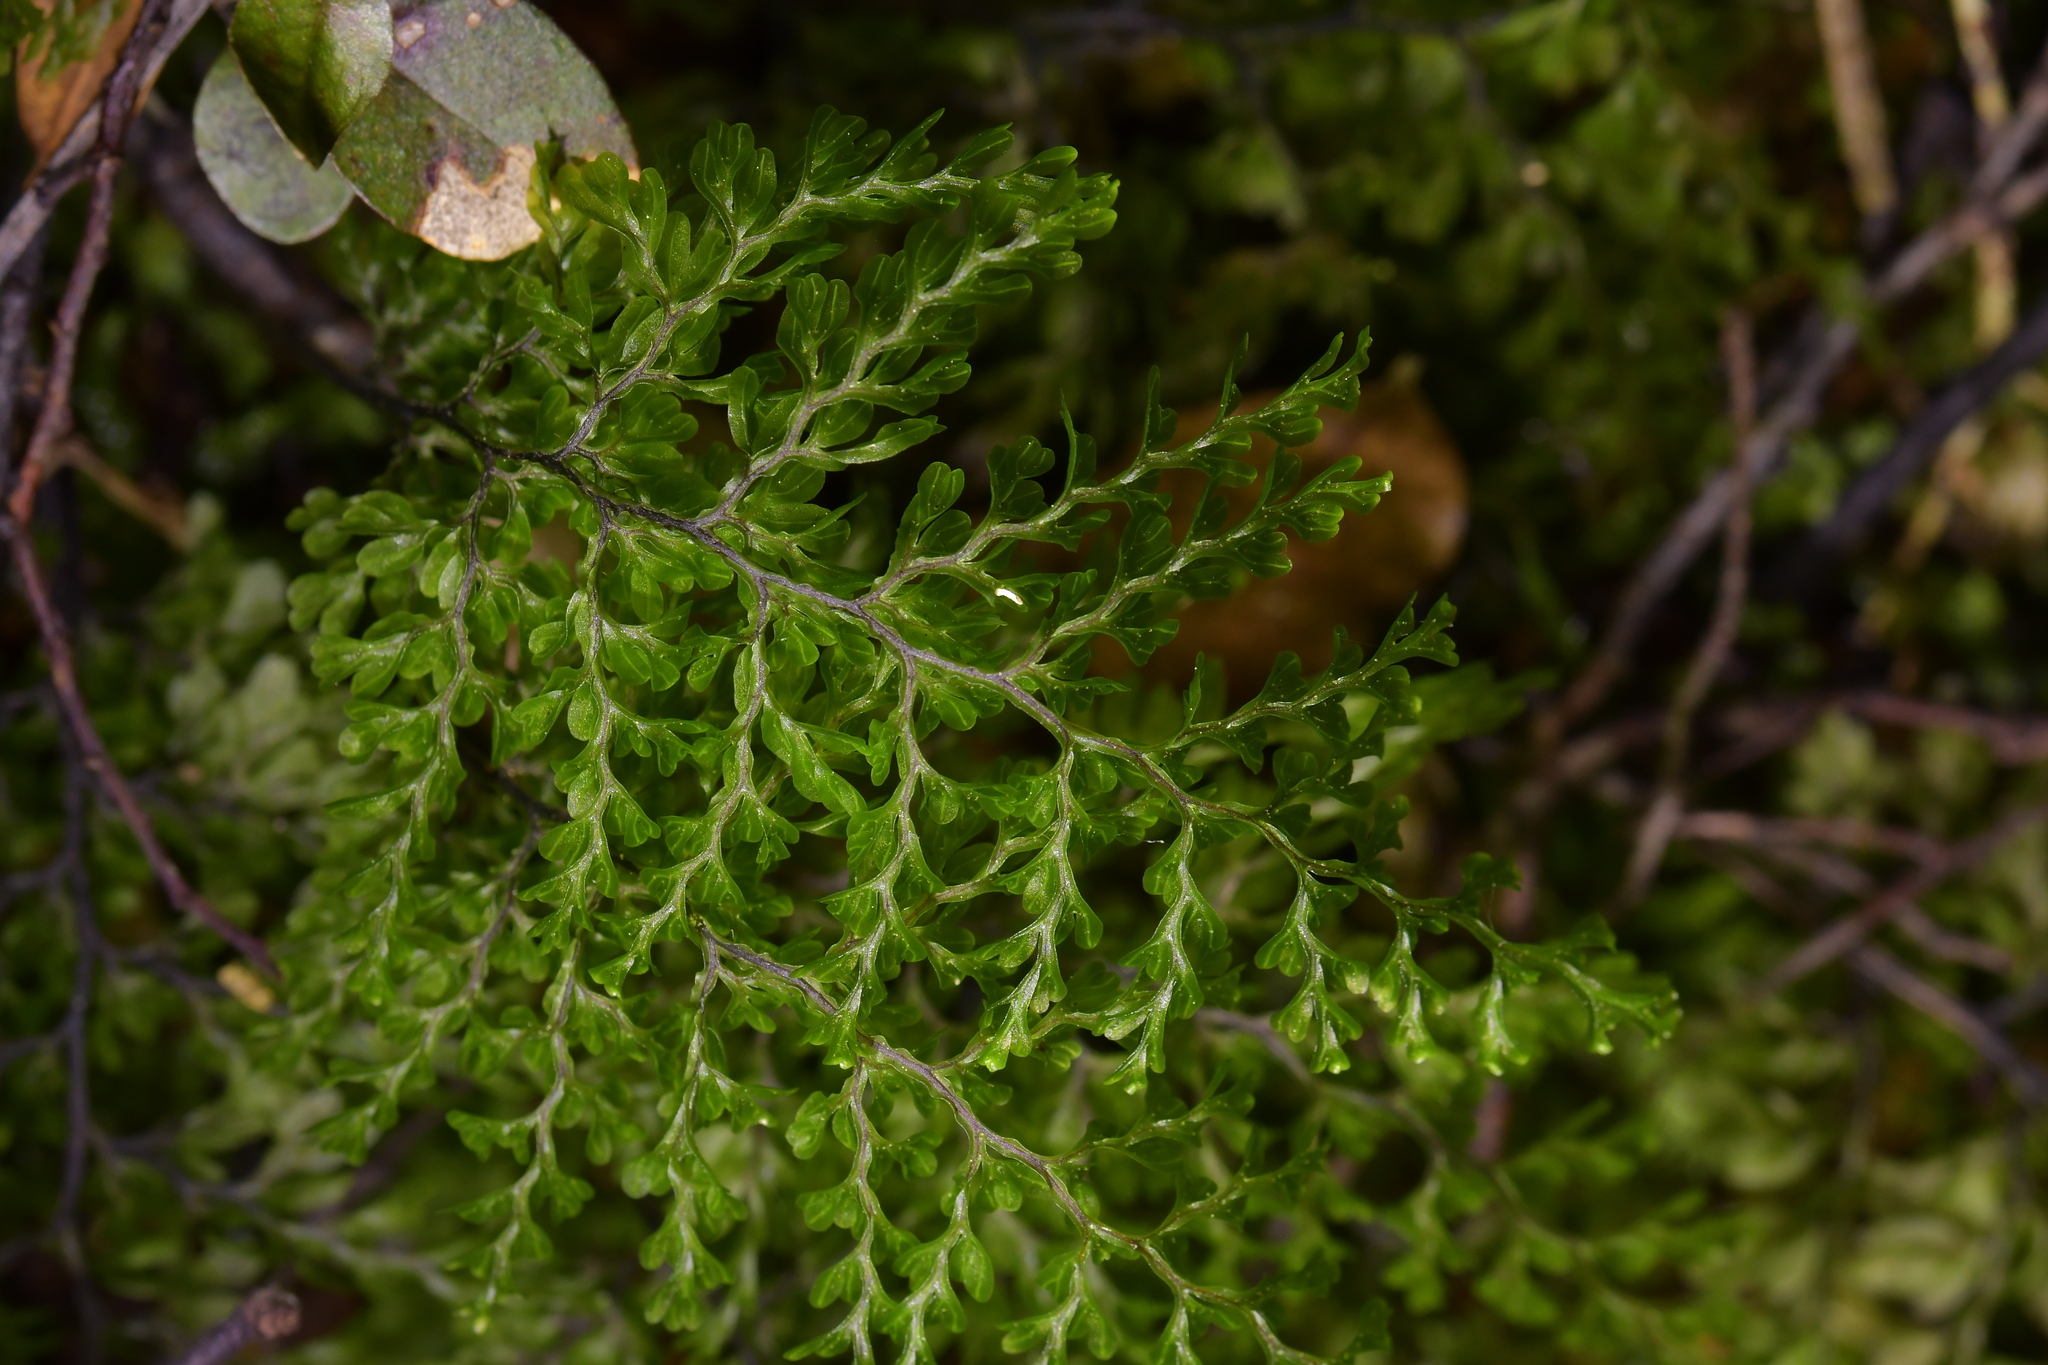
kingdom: Plantae
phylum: Tracheophyta
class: Polypodiopsida
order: Hymenophyllales
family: Hymenophyllaceae
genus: Hymenophyllum
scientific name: Hymenophyllum sanguinolentum
